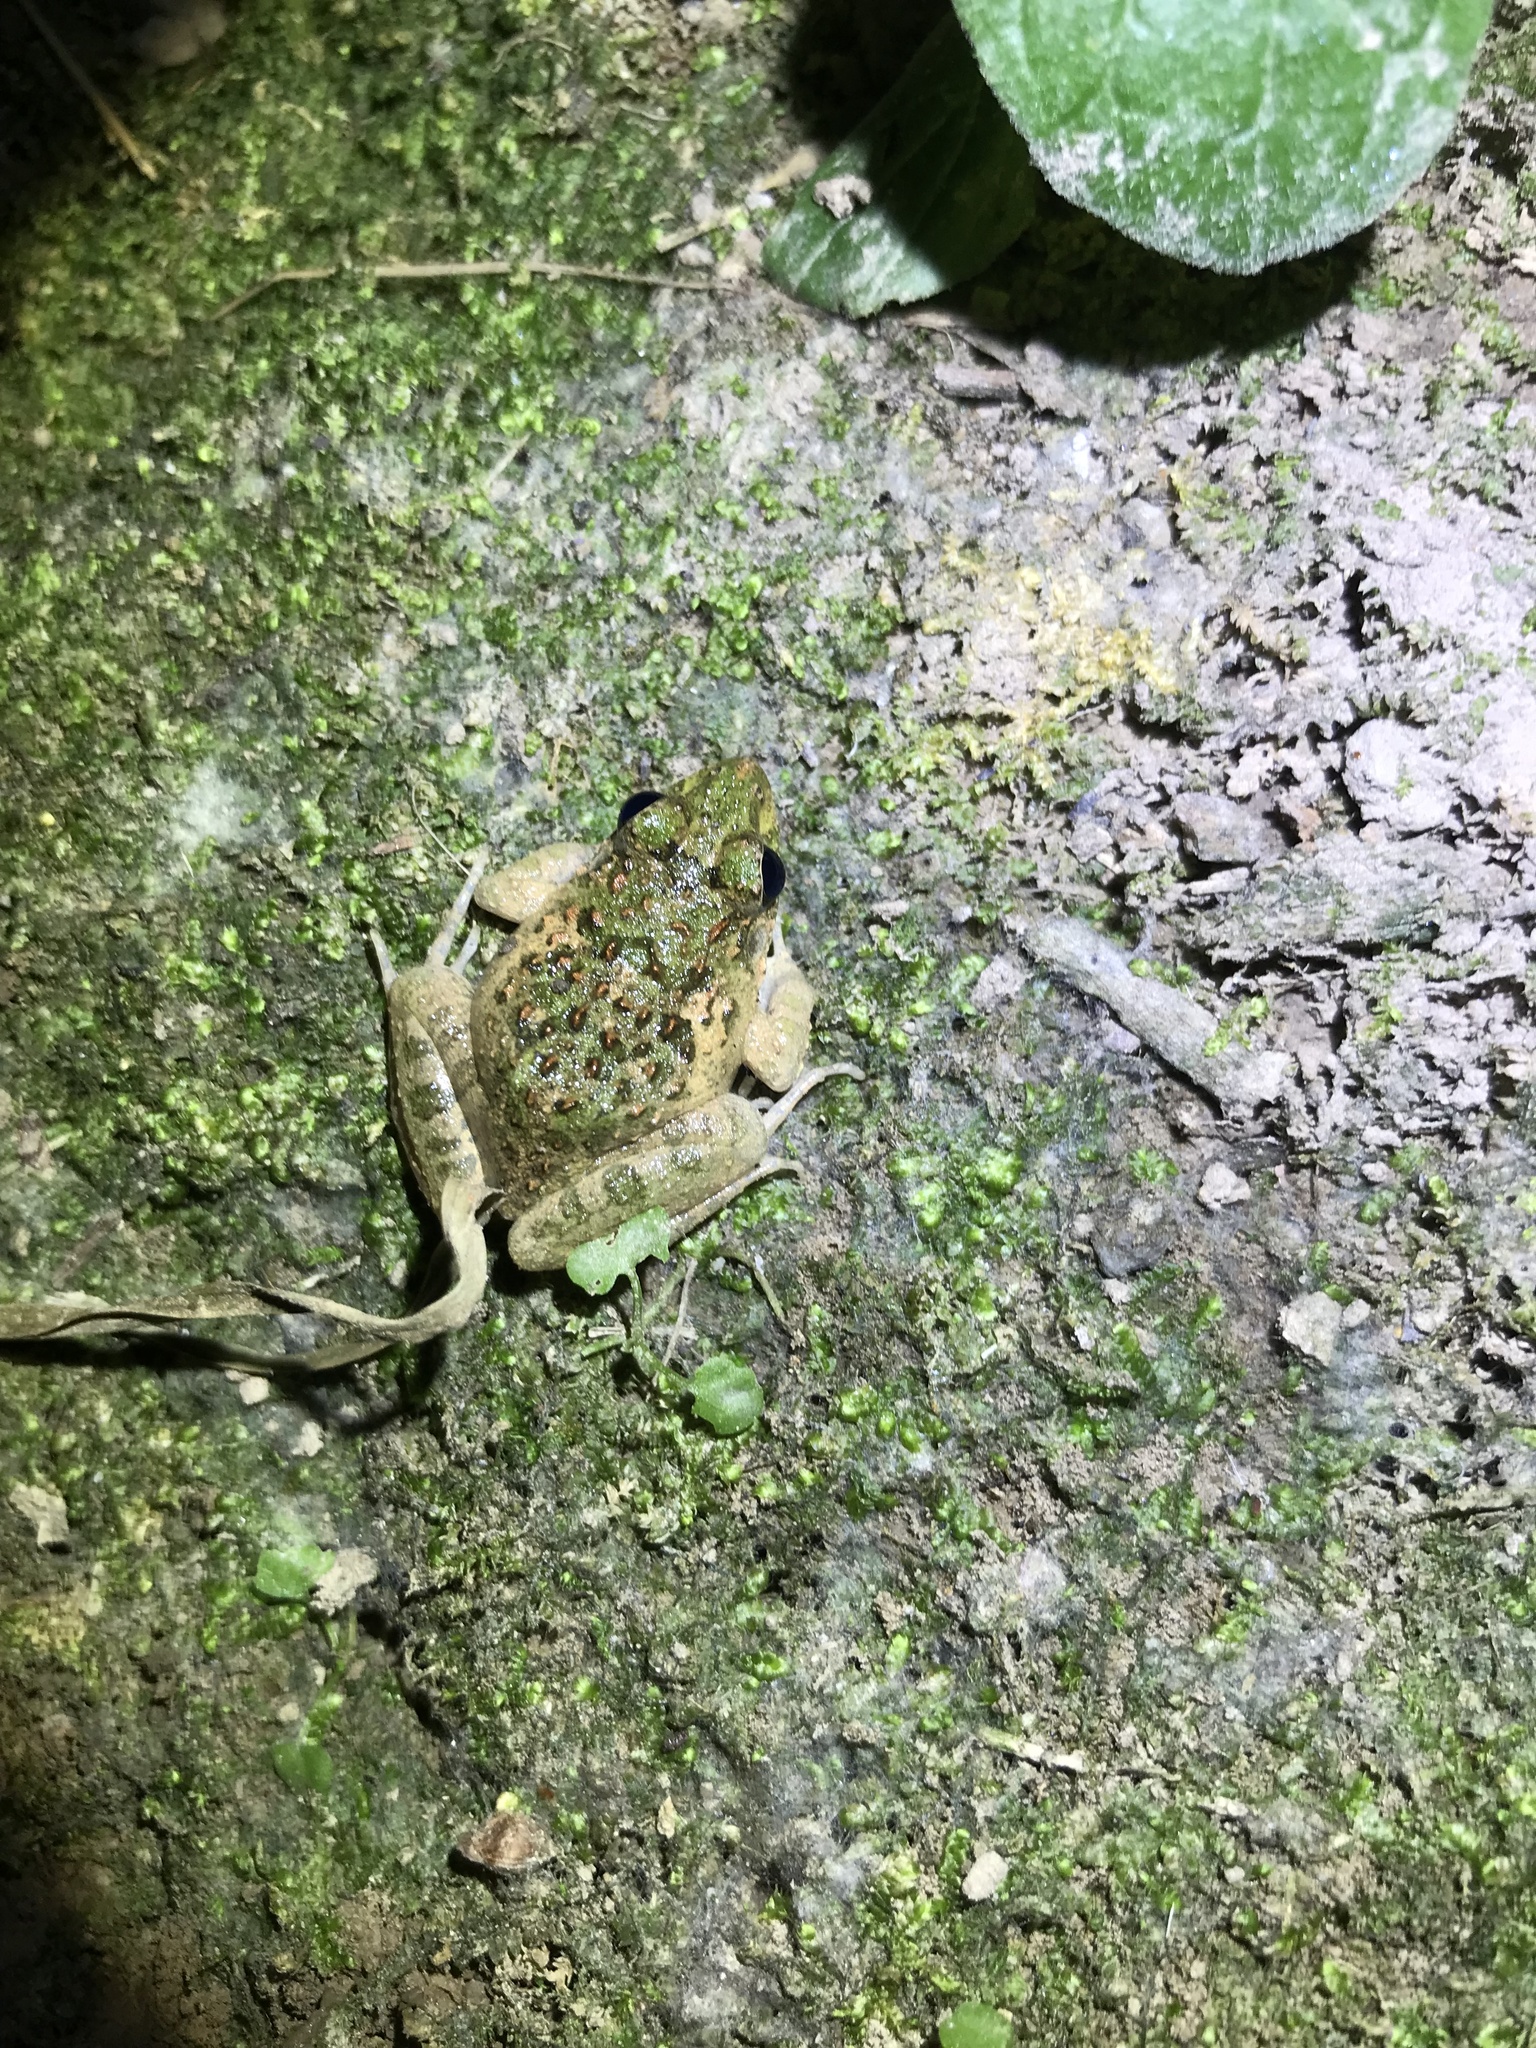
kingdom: Animalia
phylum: Chordata
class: Amphibia
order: Anura
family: Dicroglossidae
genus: Fejervarya
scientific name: Fejervarya limnocharis
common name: Asian grass frog/common pond frog/field frog/grass frog/indian rice frog
